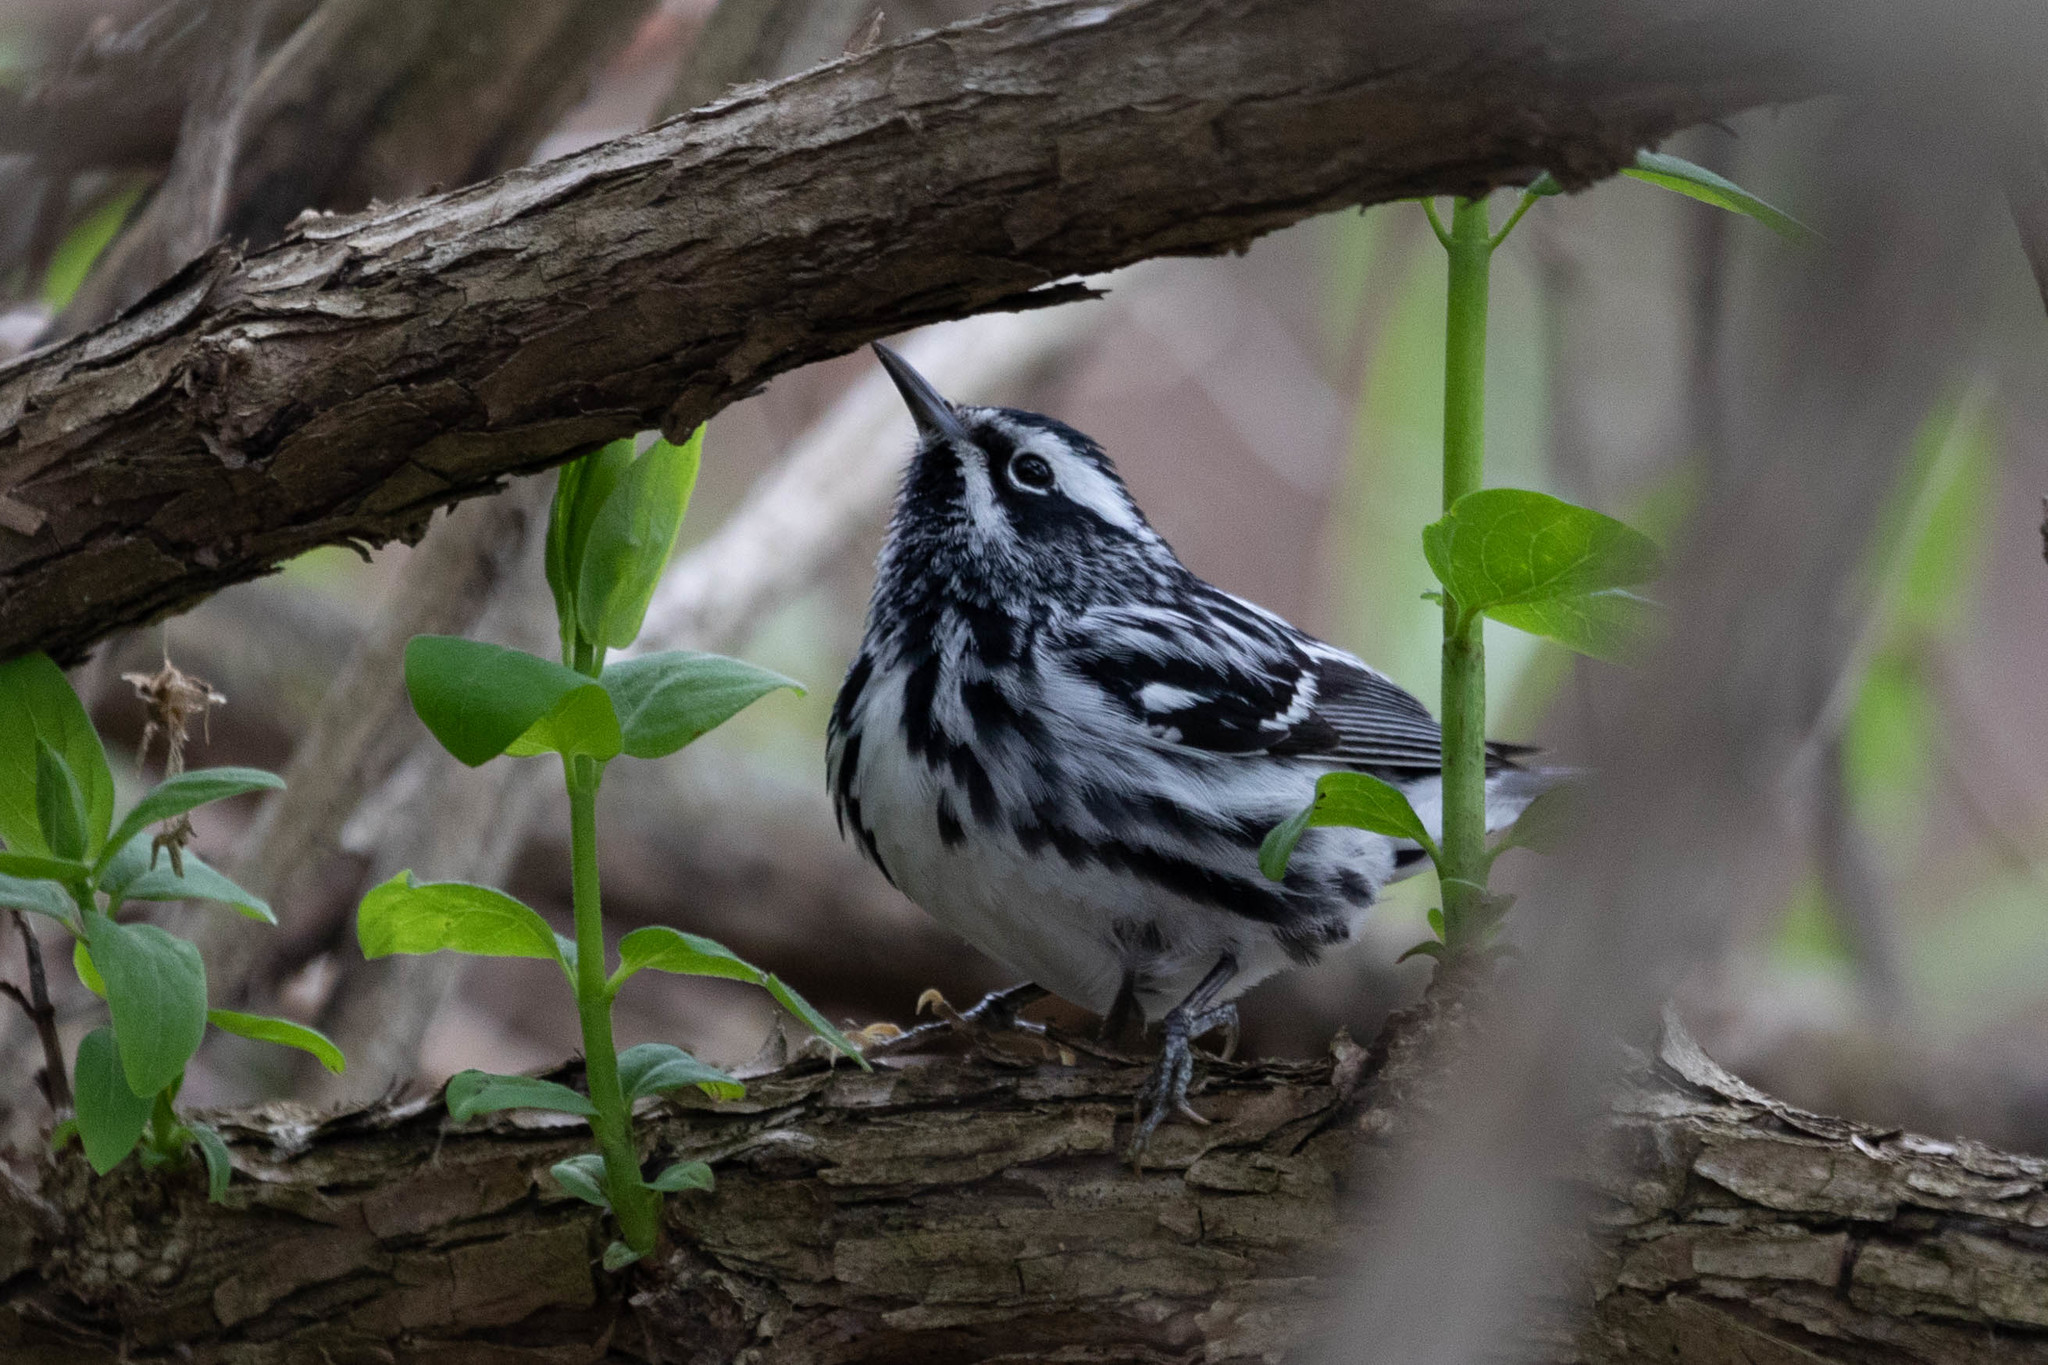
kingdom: Animalia
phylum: Chordata
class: Aves
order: Passeriformes
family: Parulidae
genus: Mniotilta
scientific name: Mniotilta varia
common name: Black-and-white warbler
